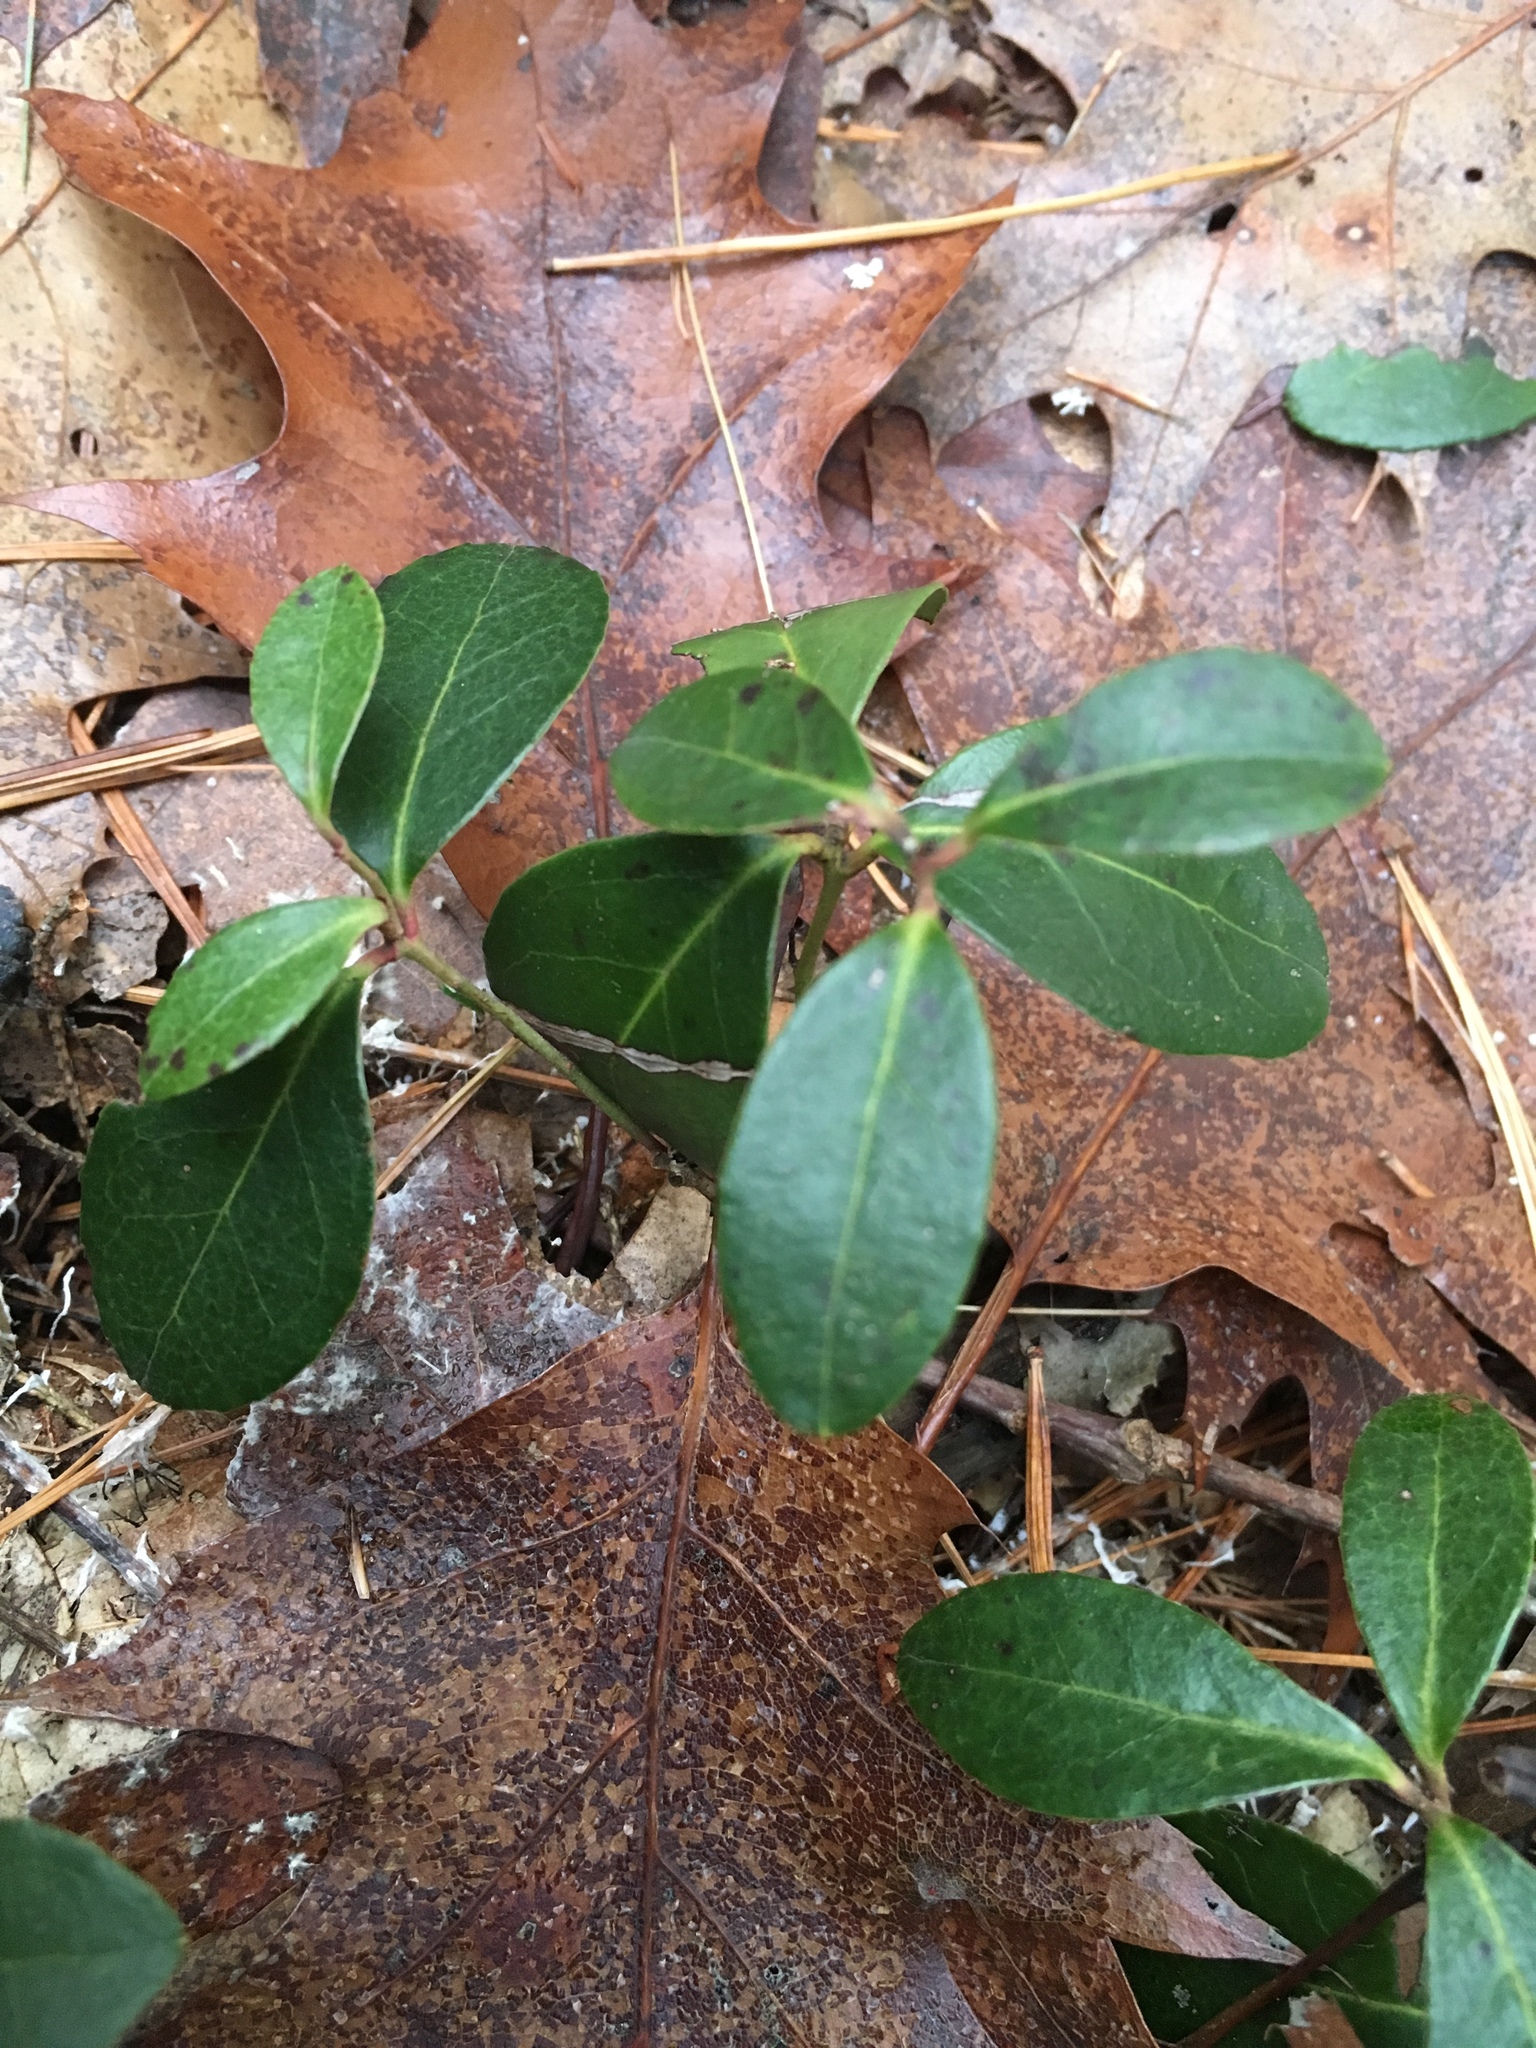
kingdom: Plantae
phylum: Tracheophyta
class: Magnoliopsida
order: Ericales
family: Ericaceae
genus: Gaultheria
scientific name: Gaultheria procumbens
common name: Checkerberry
